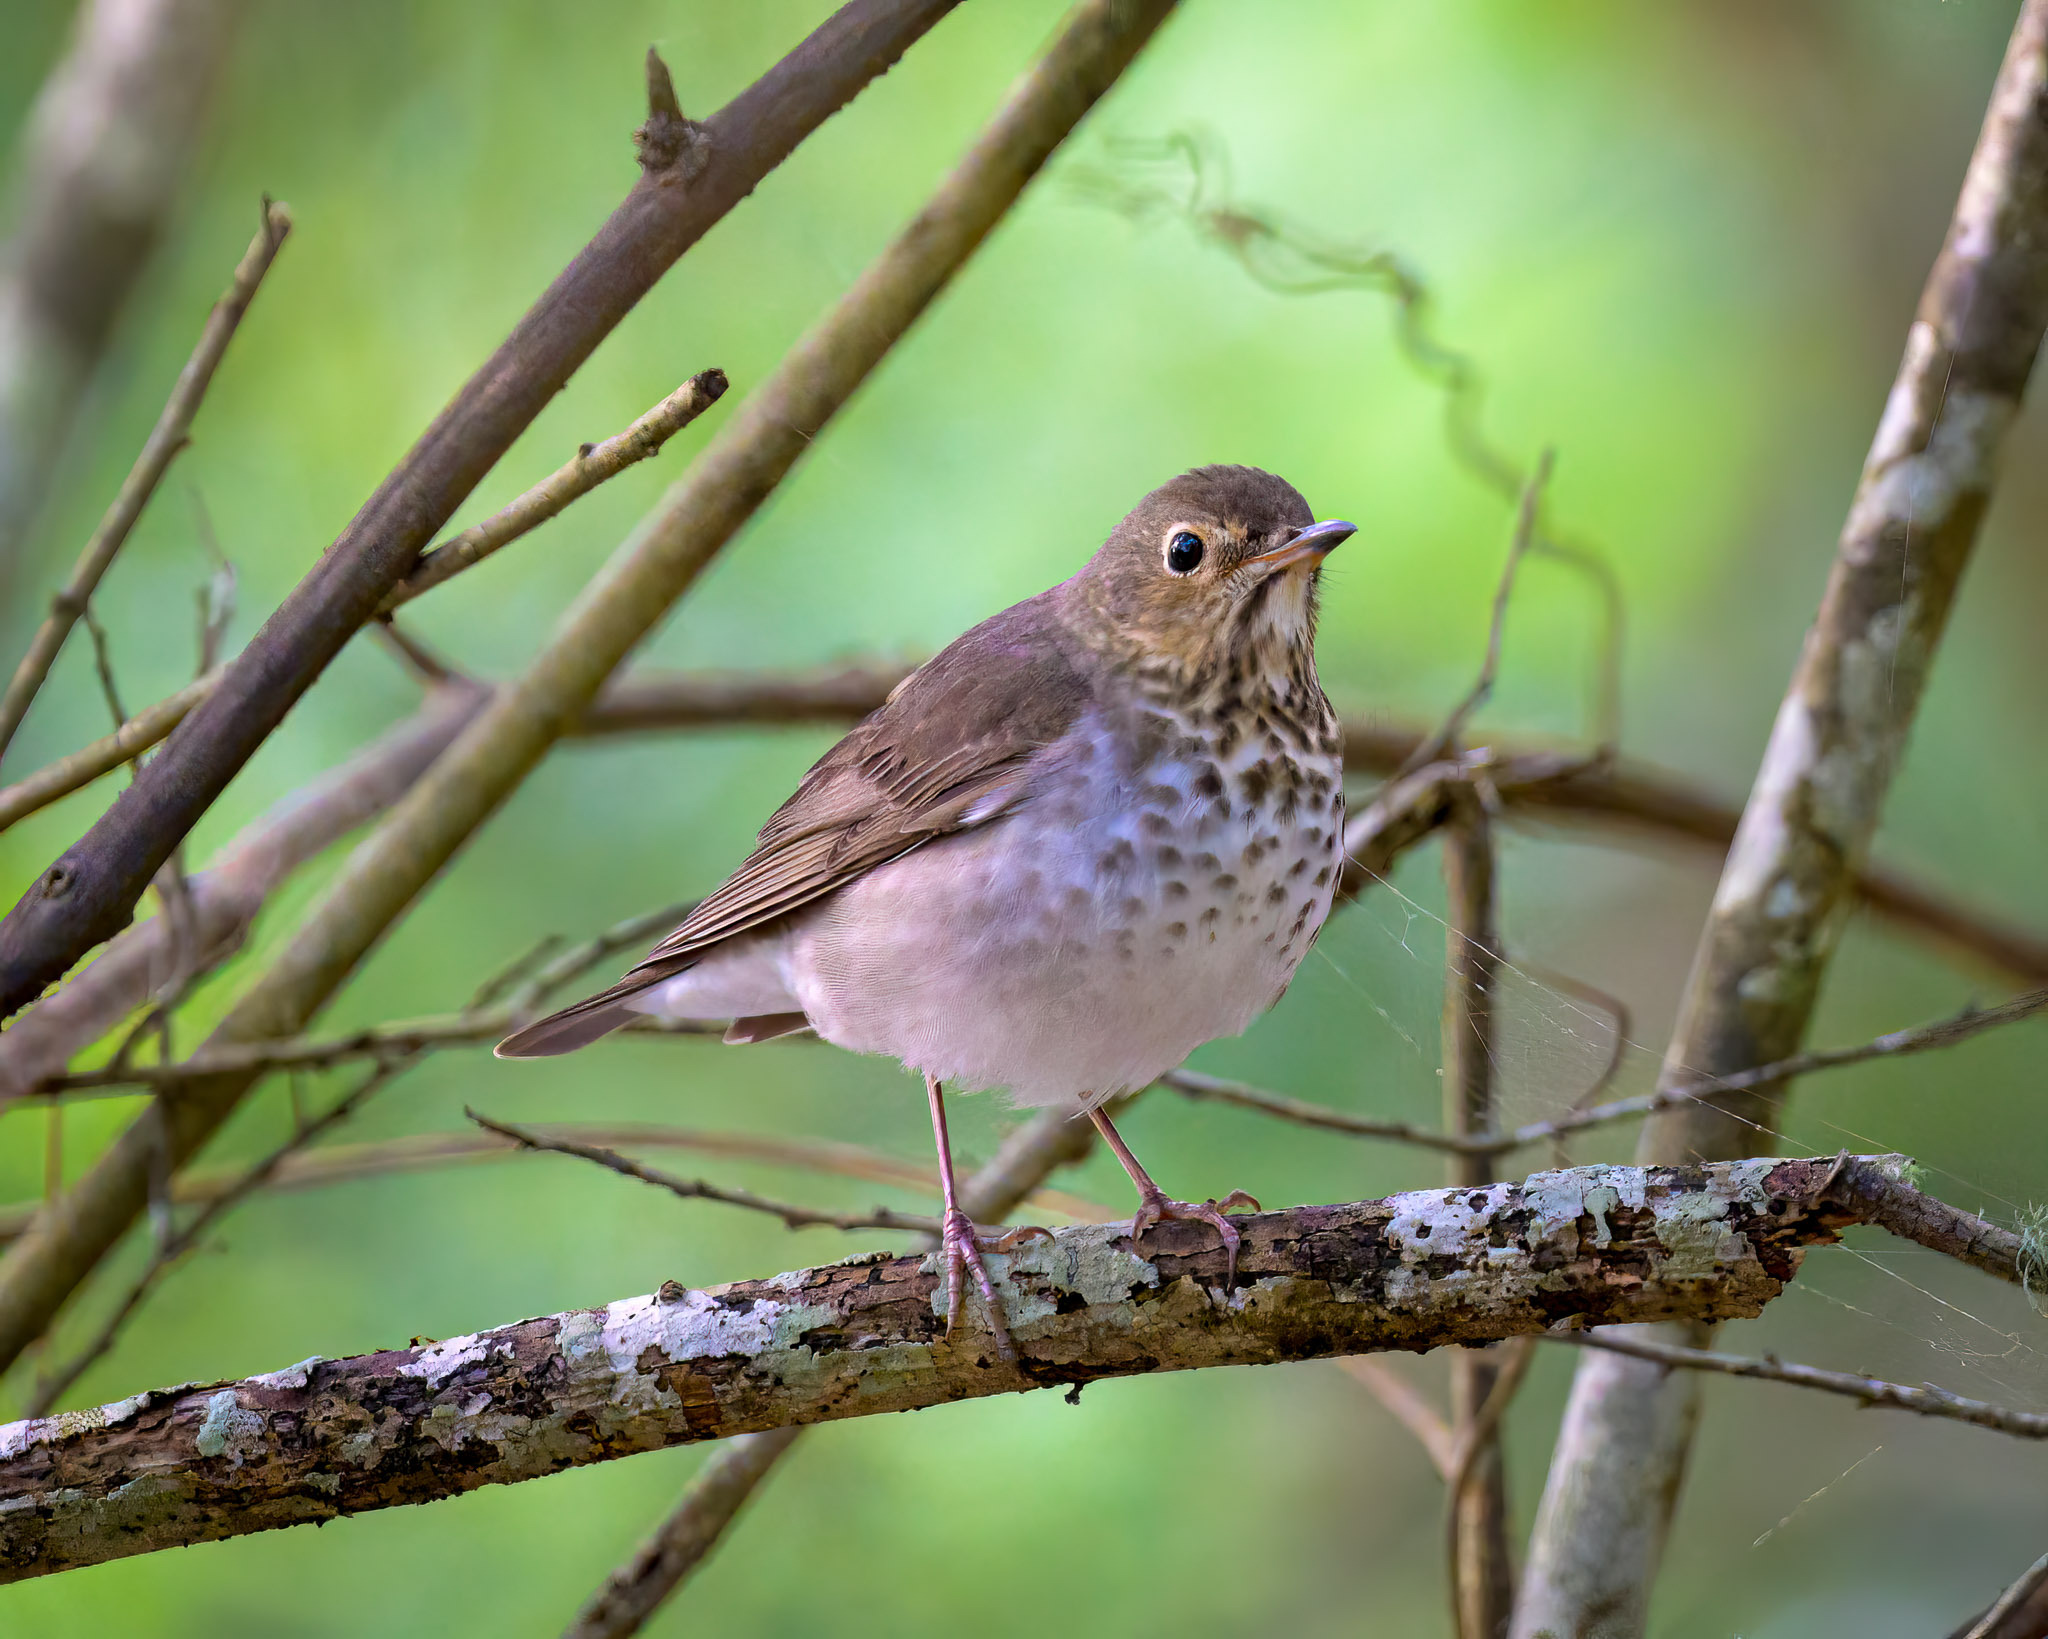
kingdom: Animalia
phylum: Chordata
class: Aves
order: Passeriformes
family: Turdidae
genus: Catharus
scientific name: Catharus ustulatus
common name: Swainson's thrush
